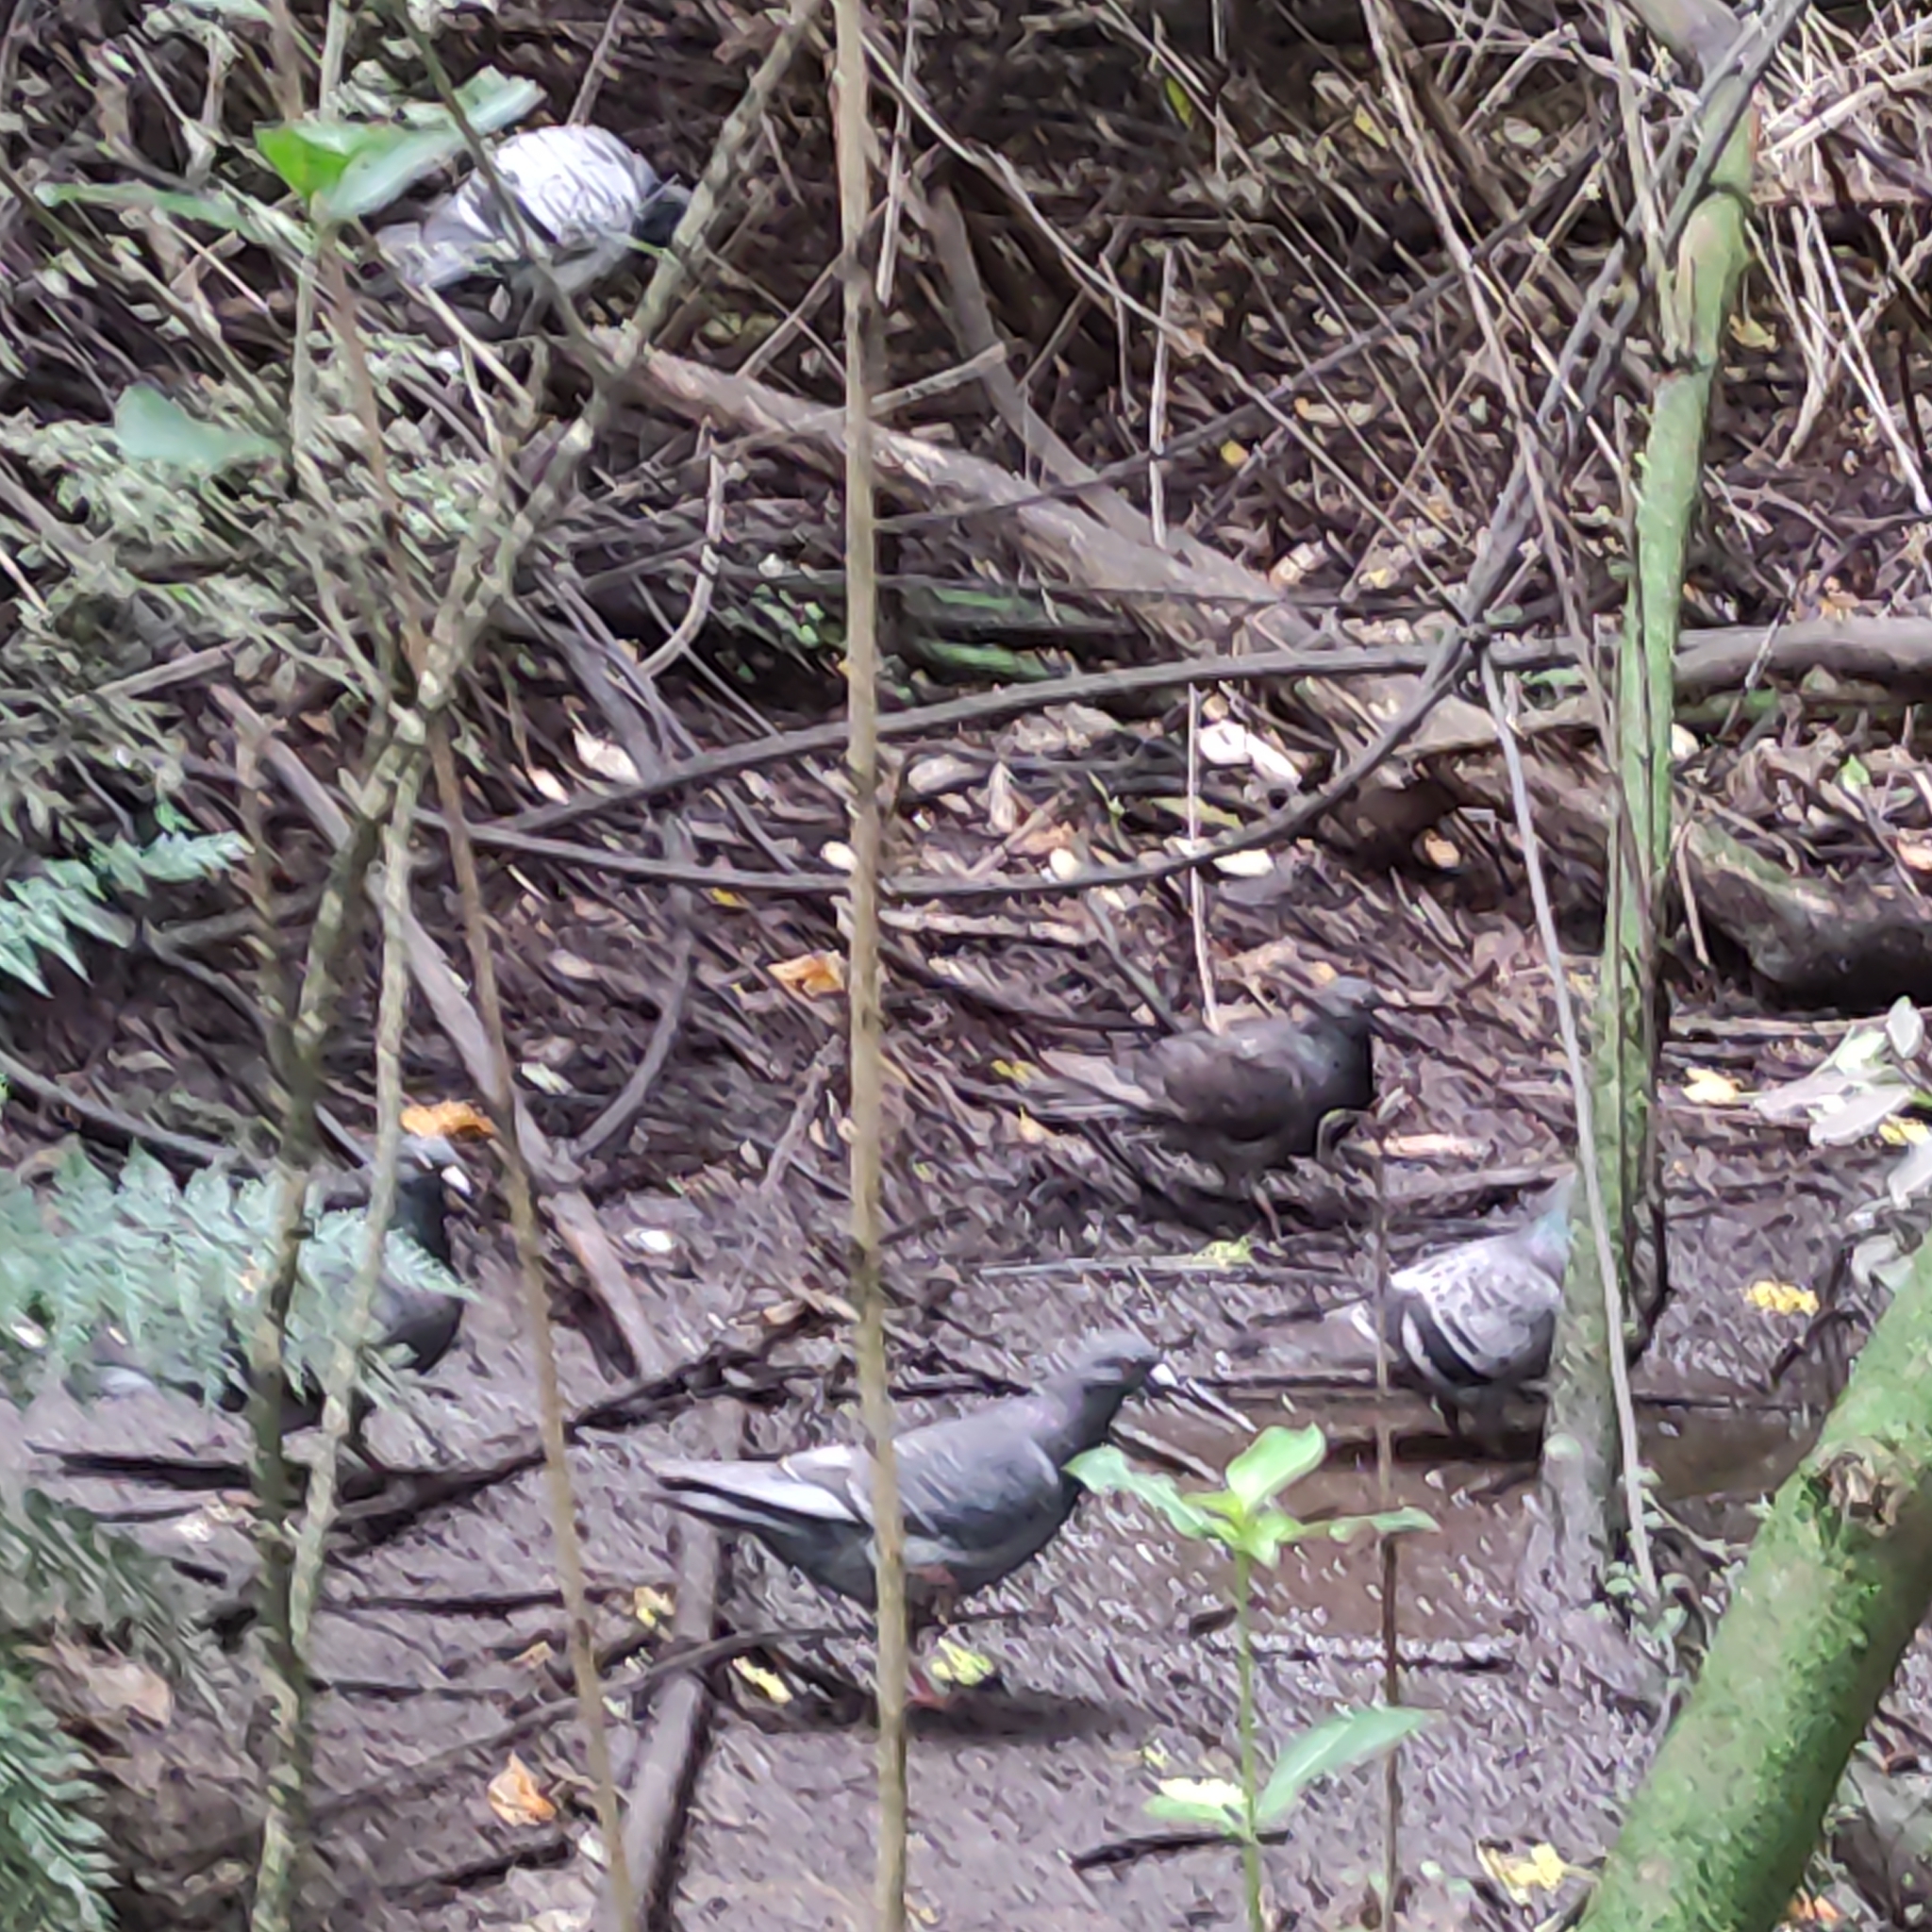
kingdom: Animalia
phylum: Chordata
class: Aves
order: Columbiformes
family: Columbidae
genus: Columba
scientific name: Columba livia
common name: Rock pigeon
